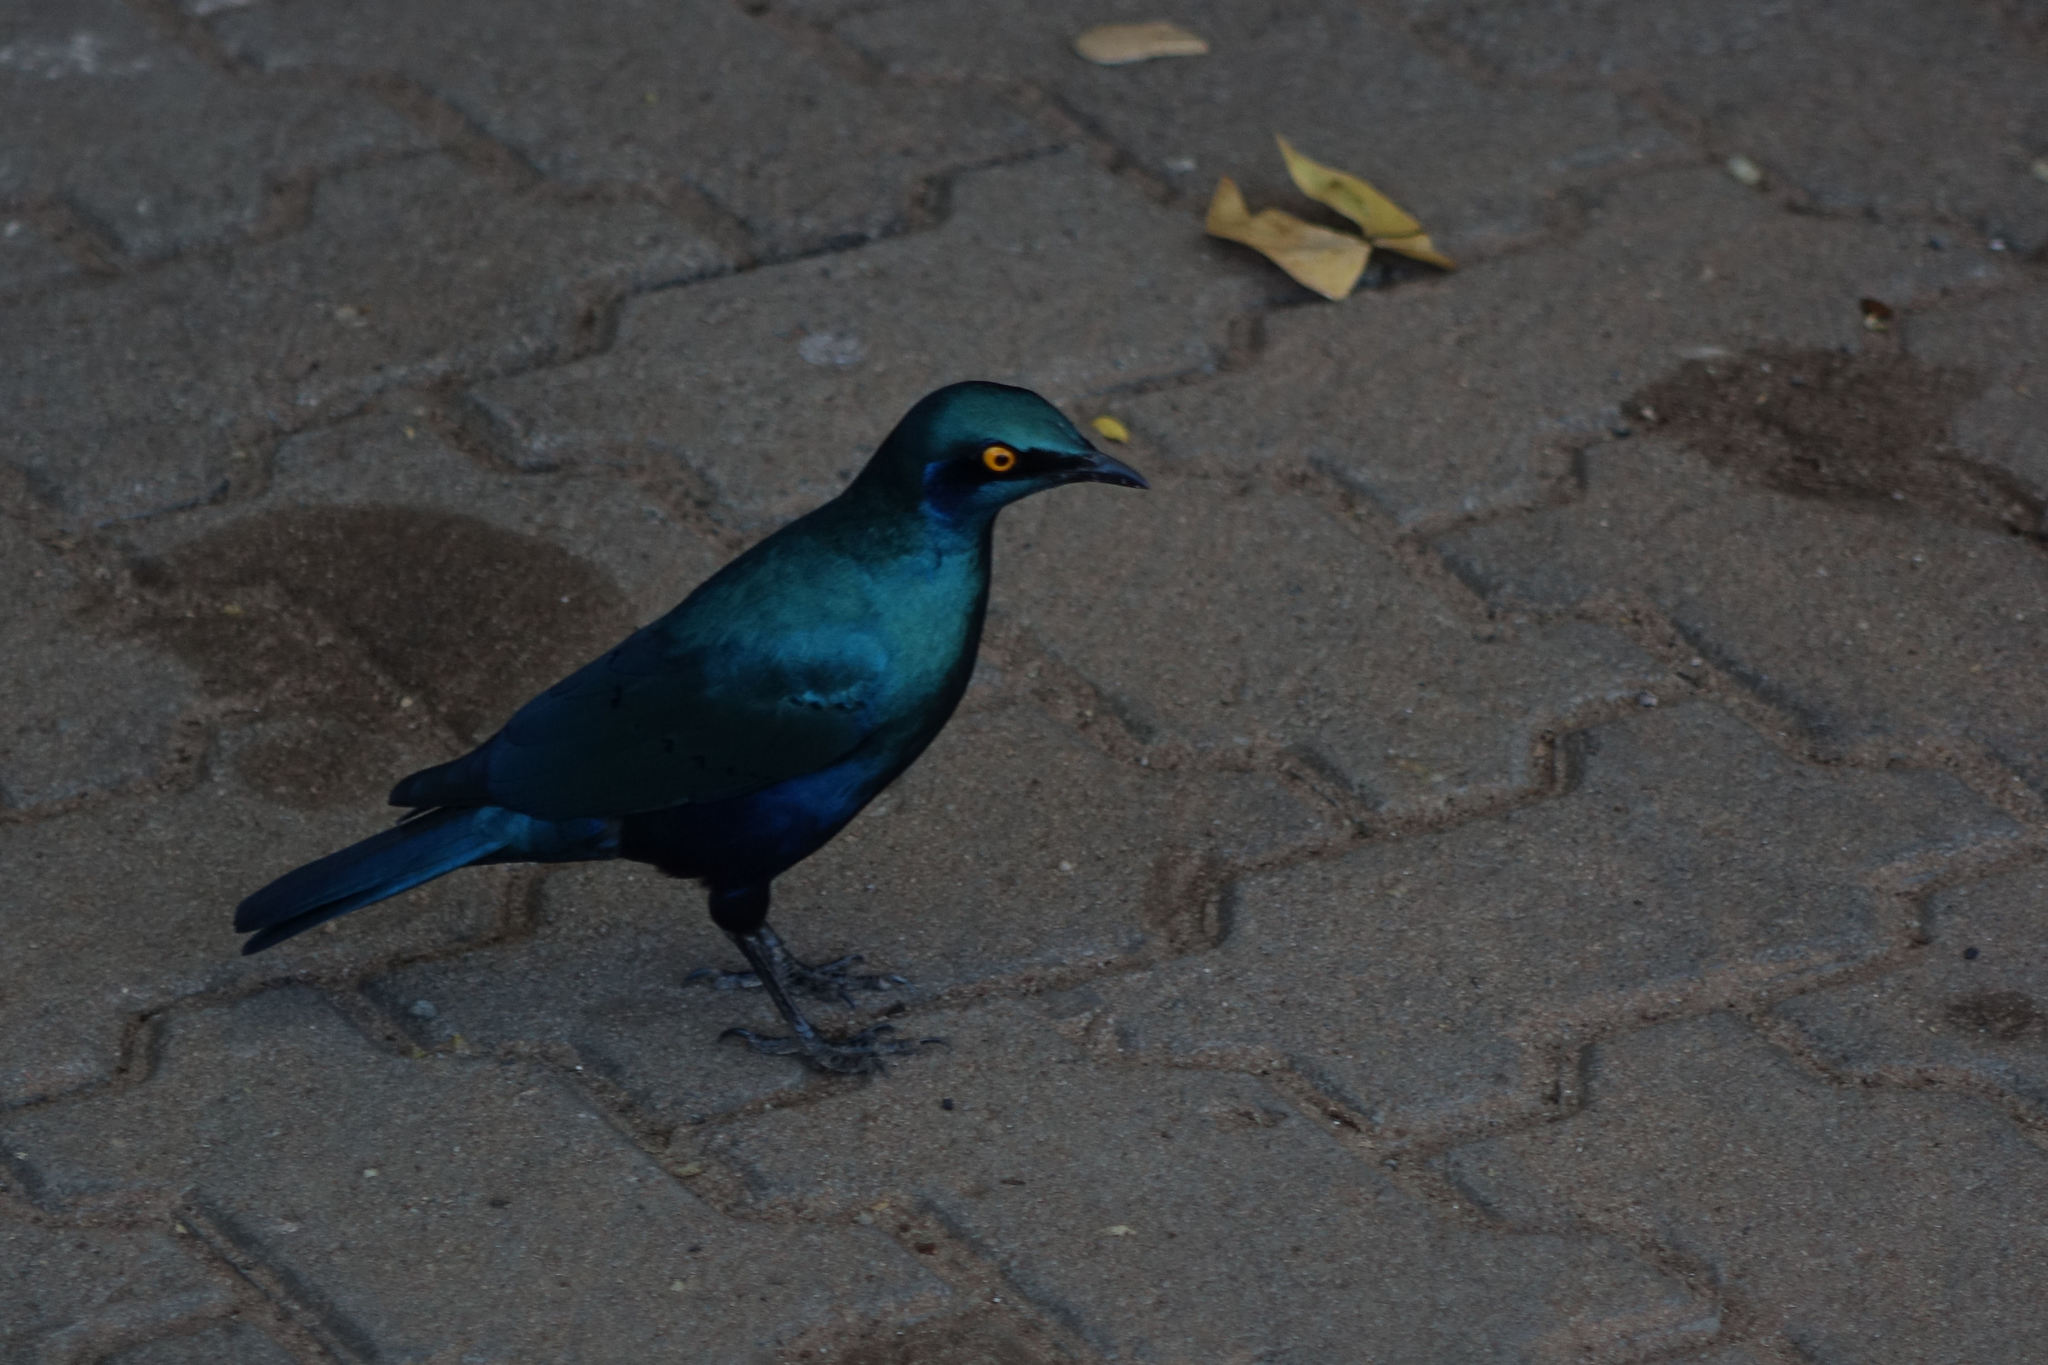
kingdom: Animalia
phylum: Chordata
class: Aves
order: Passeriformes
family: Sturnidae
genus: Lamprotornis
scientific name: Lamprotornis chalybaeus
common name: Greater blue-eared starling
